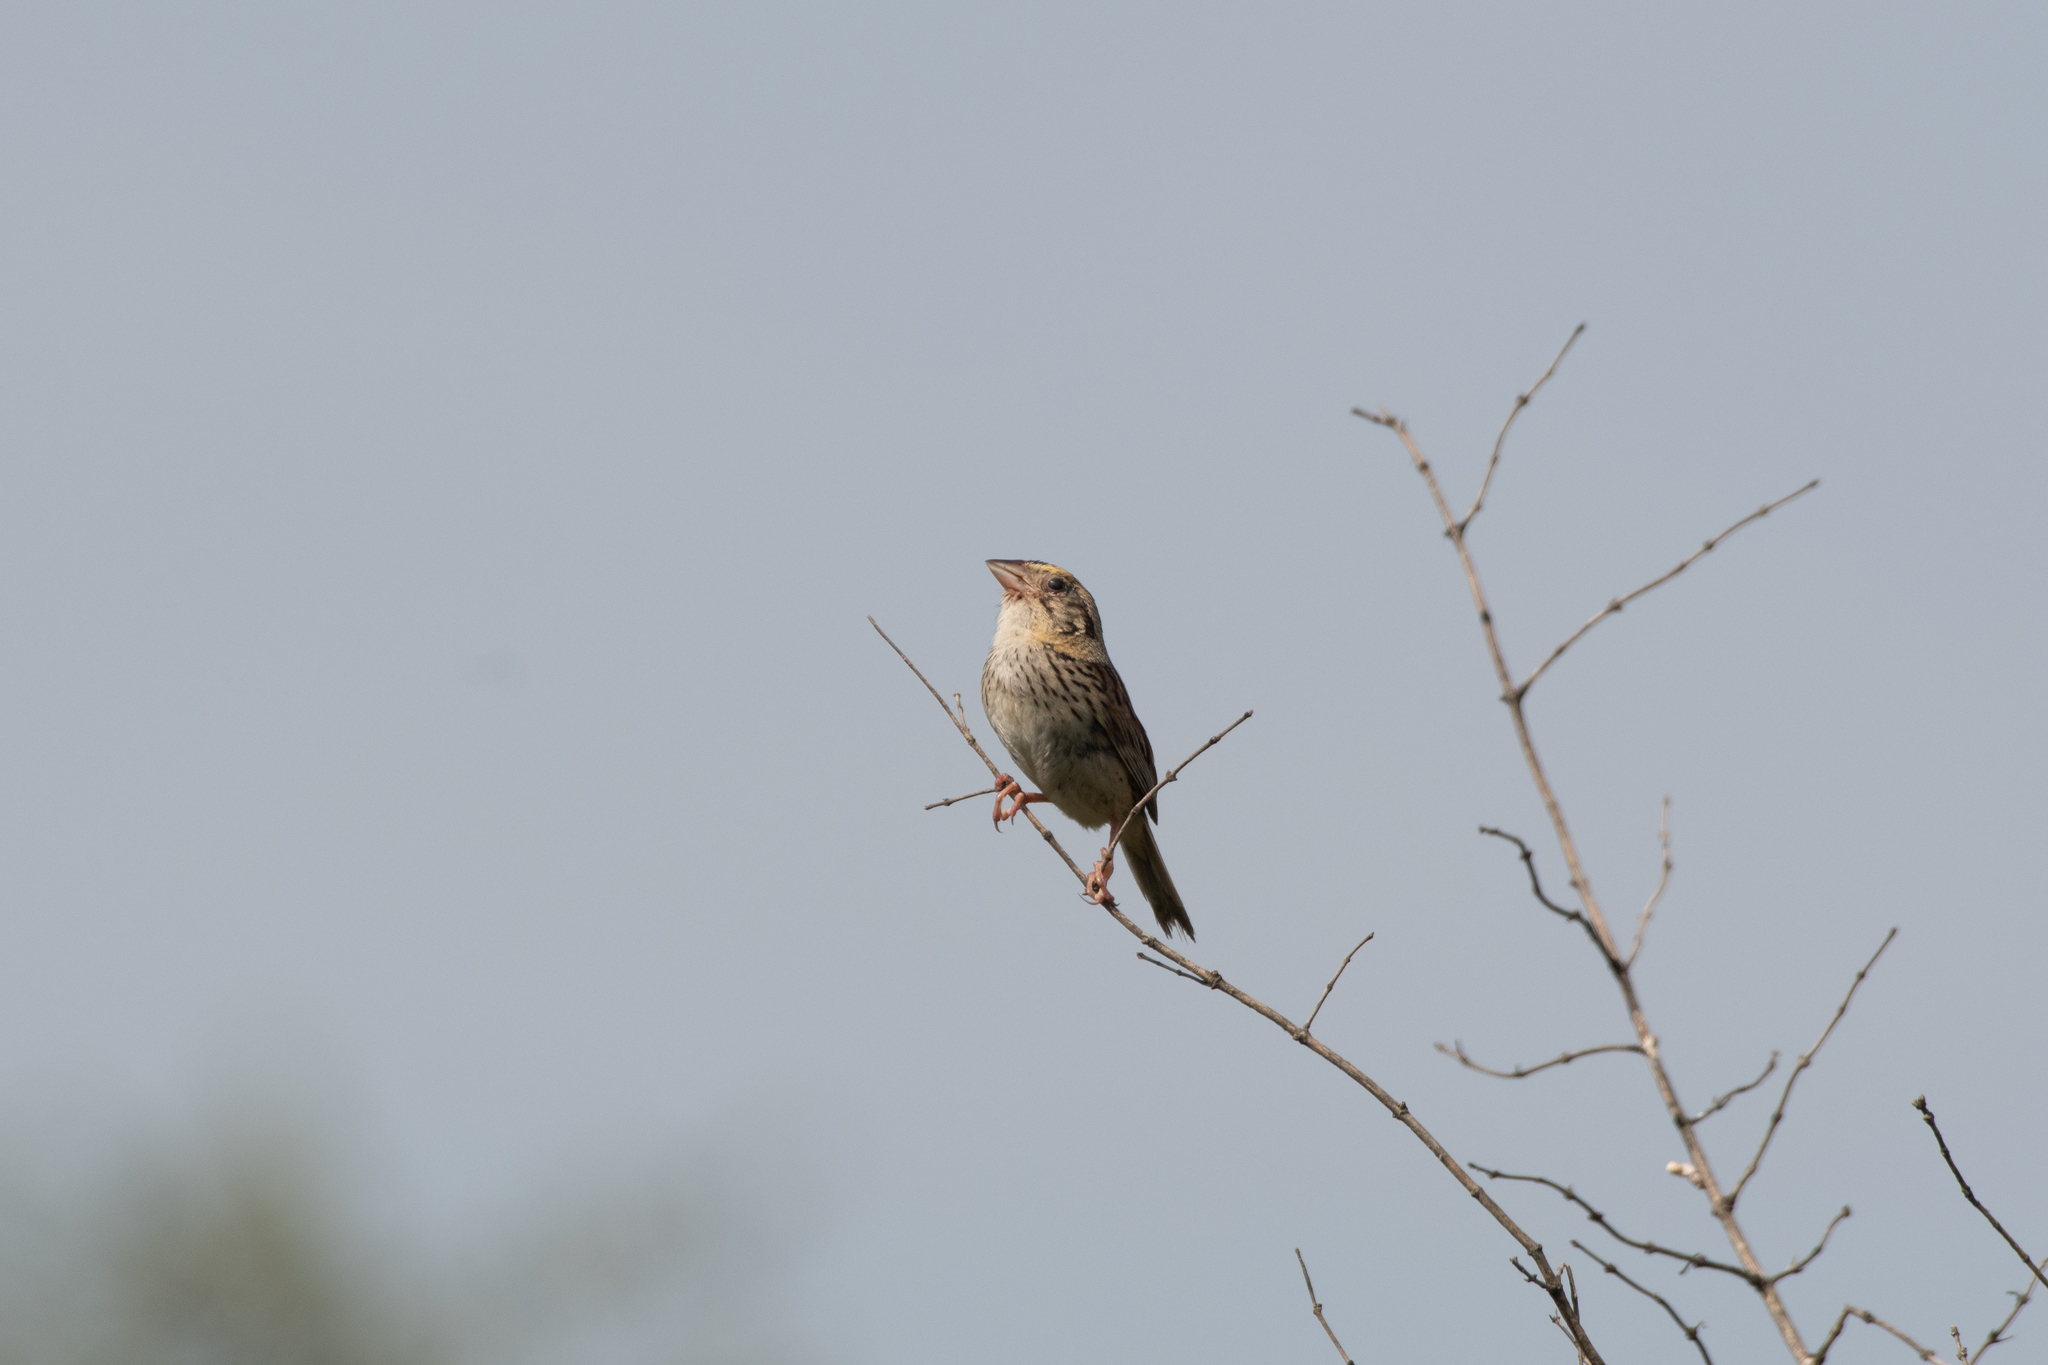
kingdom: Animalia
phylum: Chordata
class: Aves
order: Passeriformes
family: Passerellidae
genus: Centronyx
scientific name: Centronyx henslowii
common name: Henslow's sparrow
